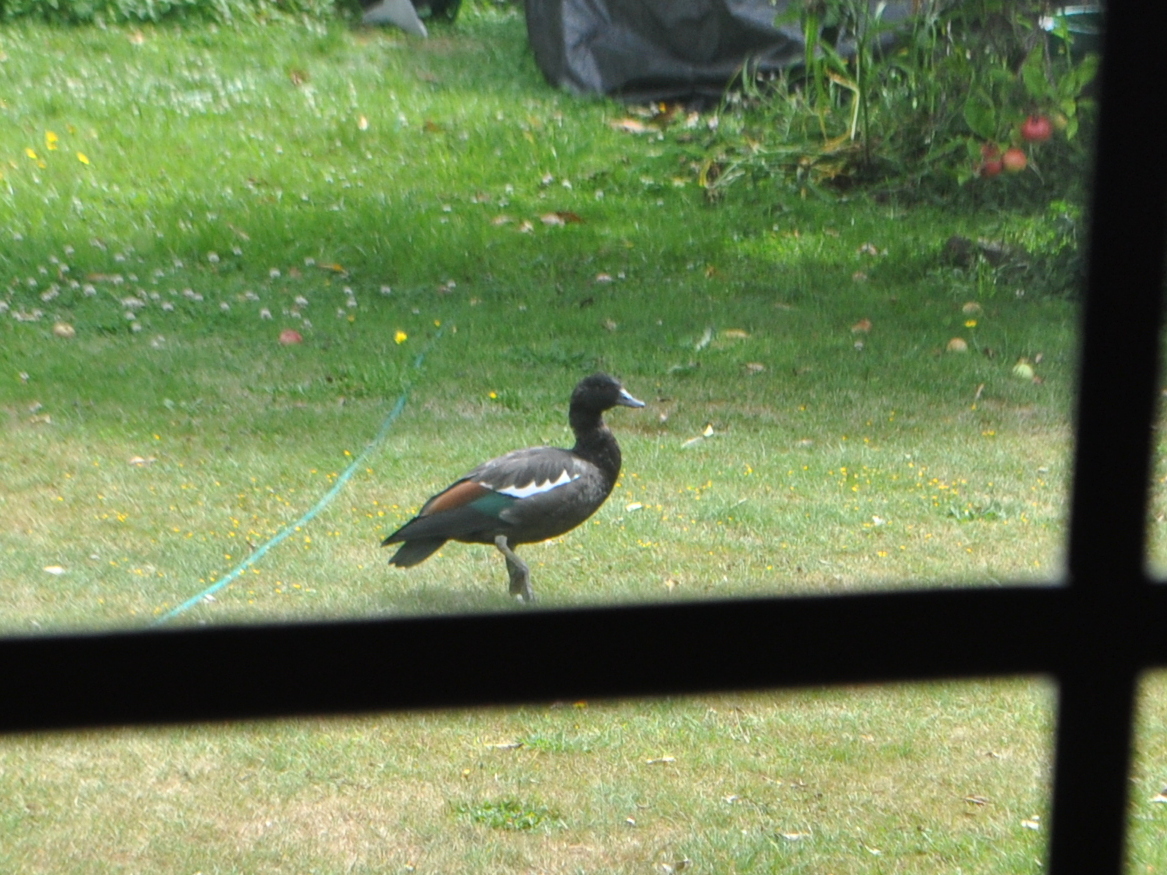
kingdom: Animalia
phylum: Chordata
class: Aves
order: Anseriformes
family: Anatidae
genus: Tadorna
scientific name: Tadorna variegata
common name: Paradise shelduck
